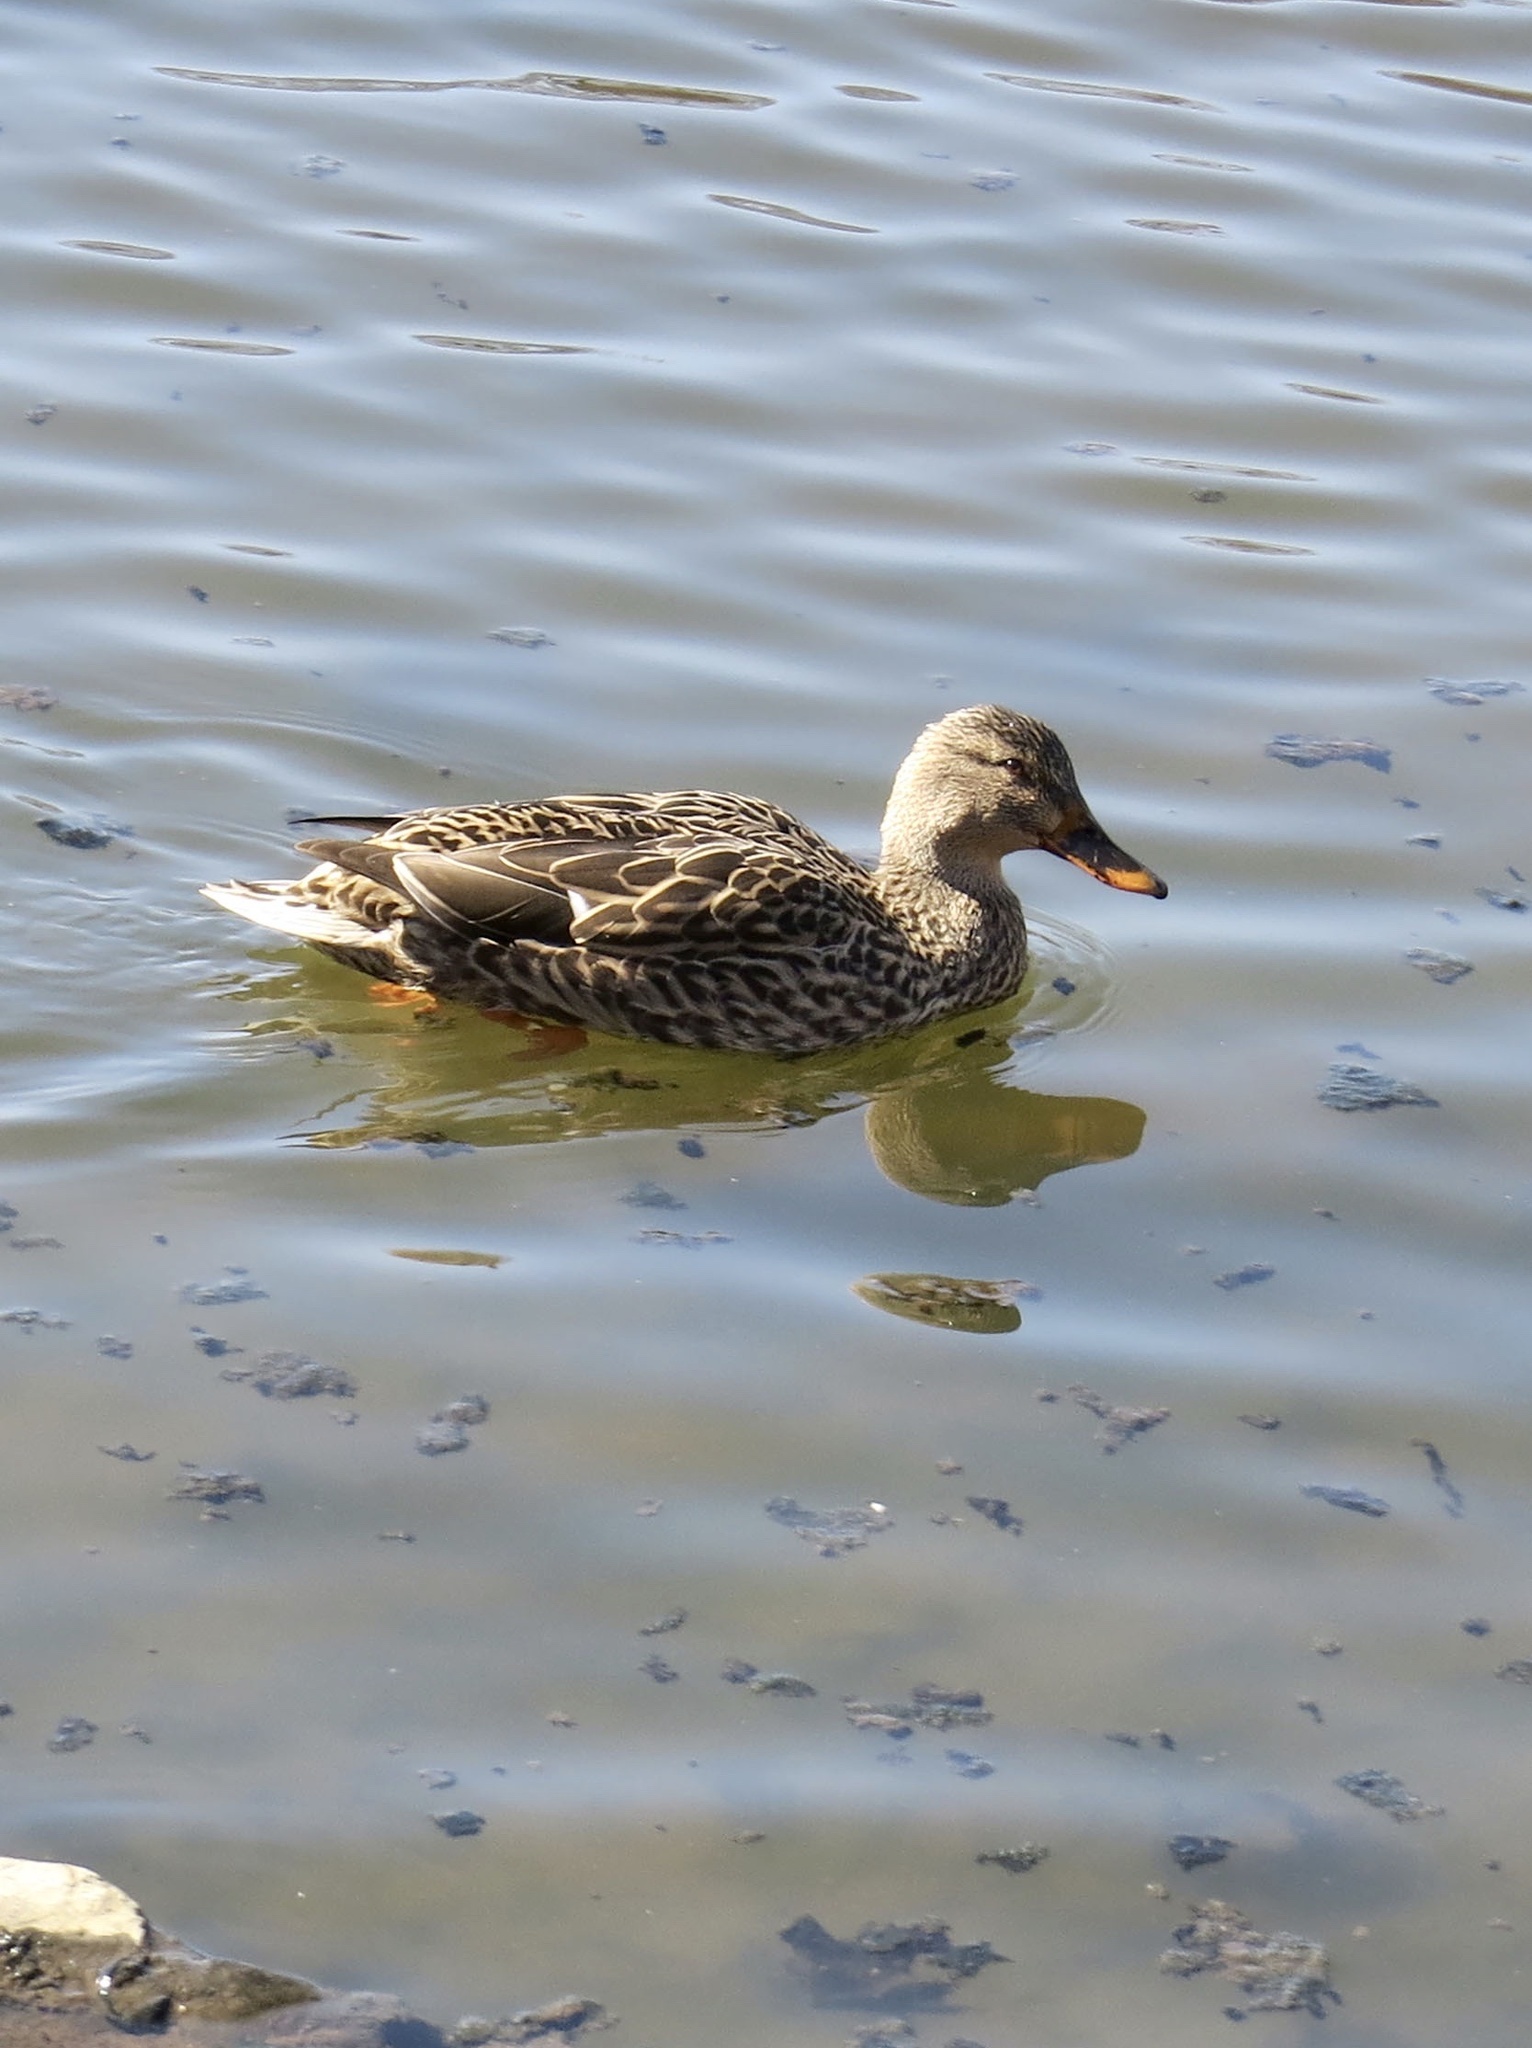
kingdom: Animalia
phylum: Chordata
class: Aves
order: Anseriformes
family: Anatidae
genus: Anas
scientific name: Anas platyrhynchos
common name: Mallard
